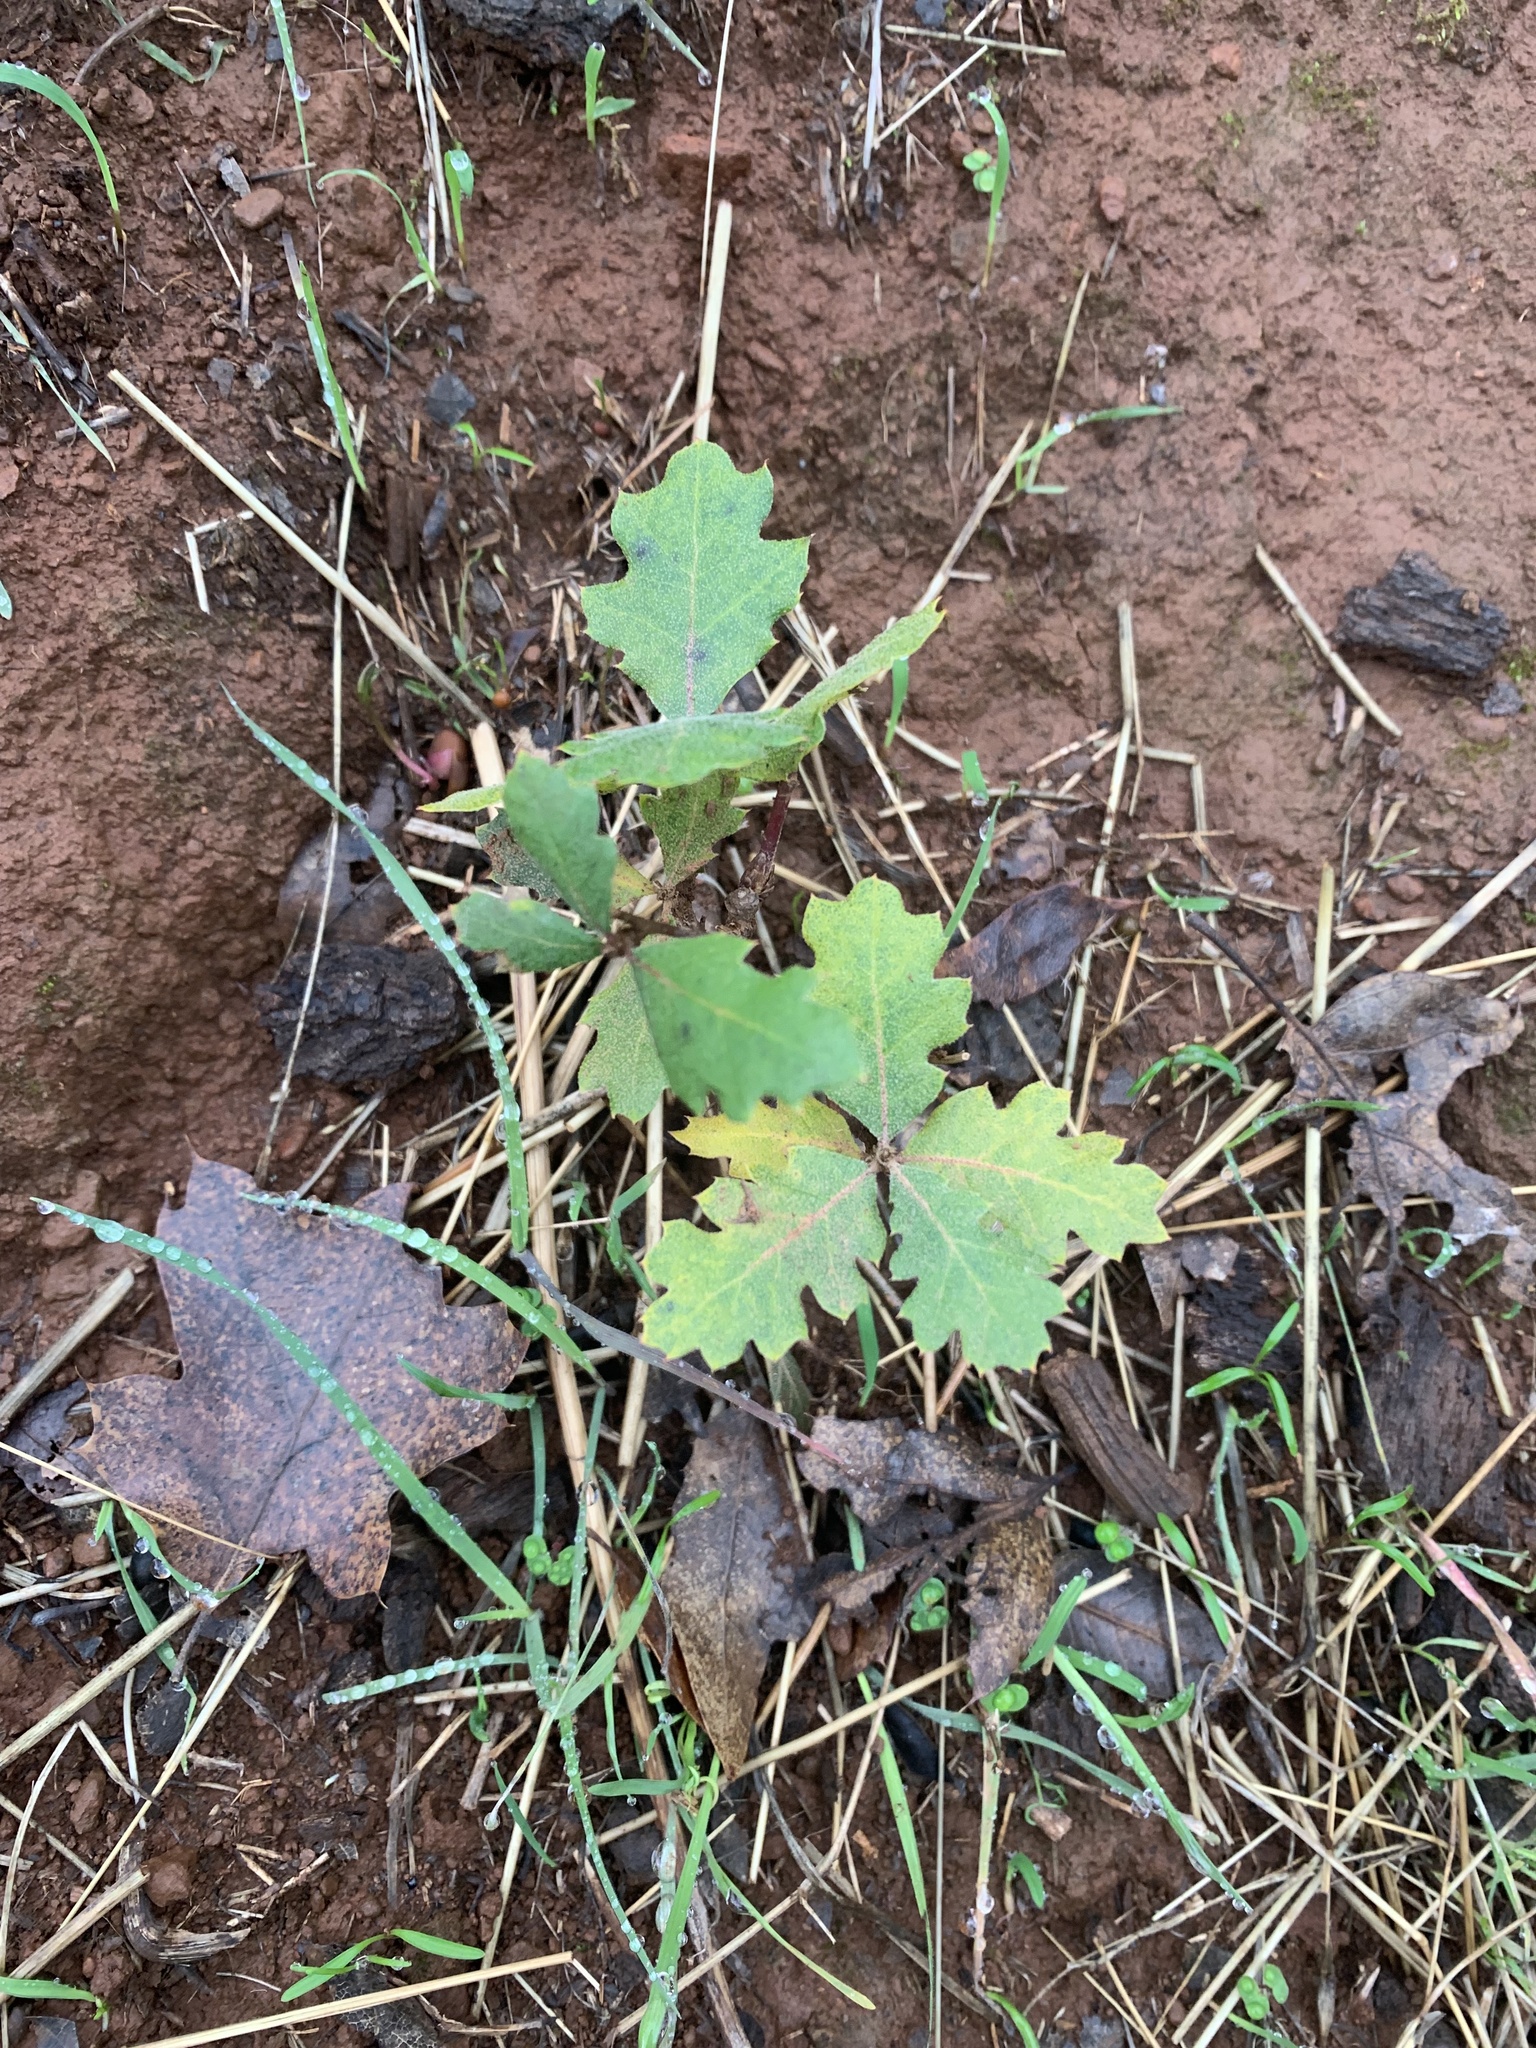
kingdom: Plantae
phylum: Tracheophyta
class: Magnoliopsida
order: Fagales
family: Fagaceae
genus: Quercus
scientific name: Quercus
